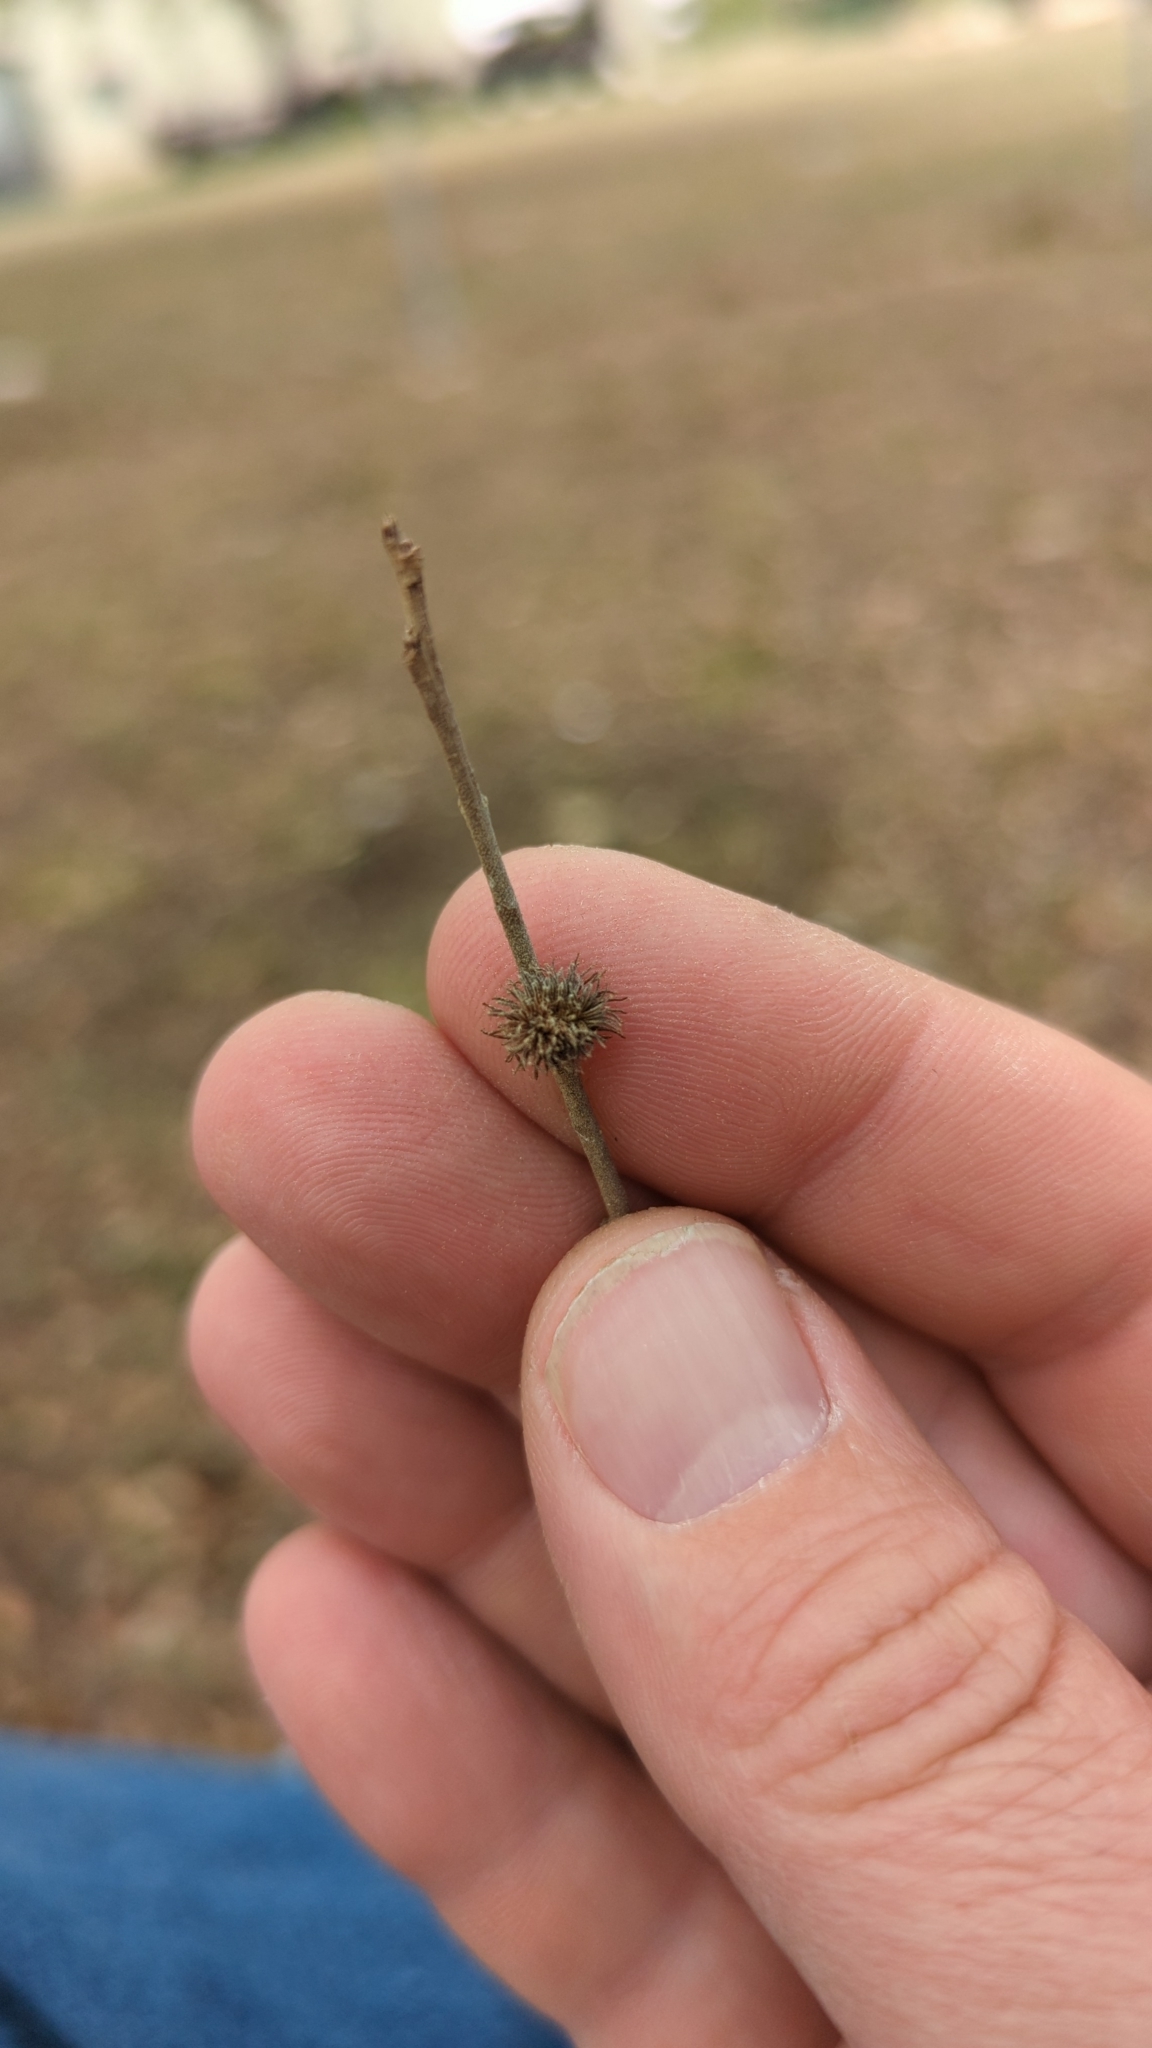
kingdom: Animalia
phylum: Arthropoda
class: Insecta
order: Hymenoptera
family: Cynipidae
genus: Andricus
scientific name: Andricus
